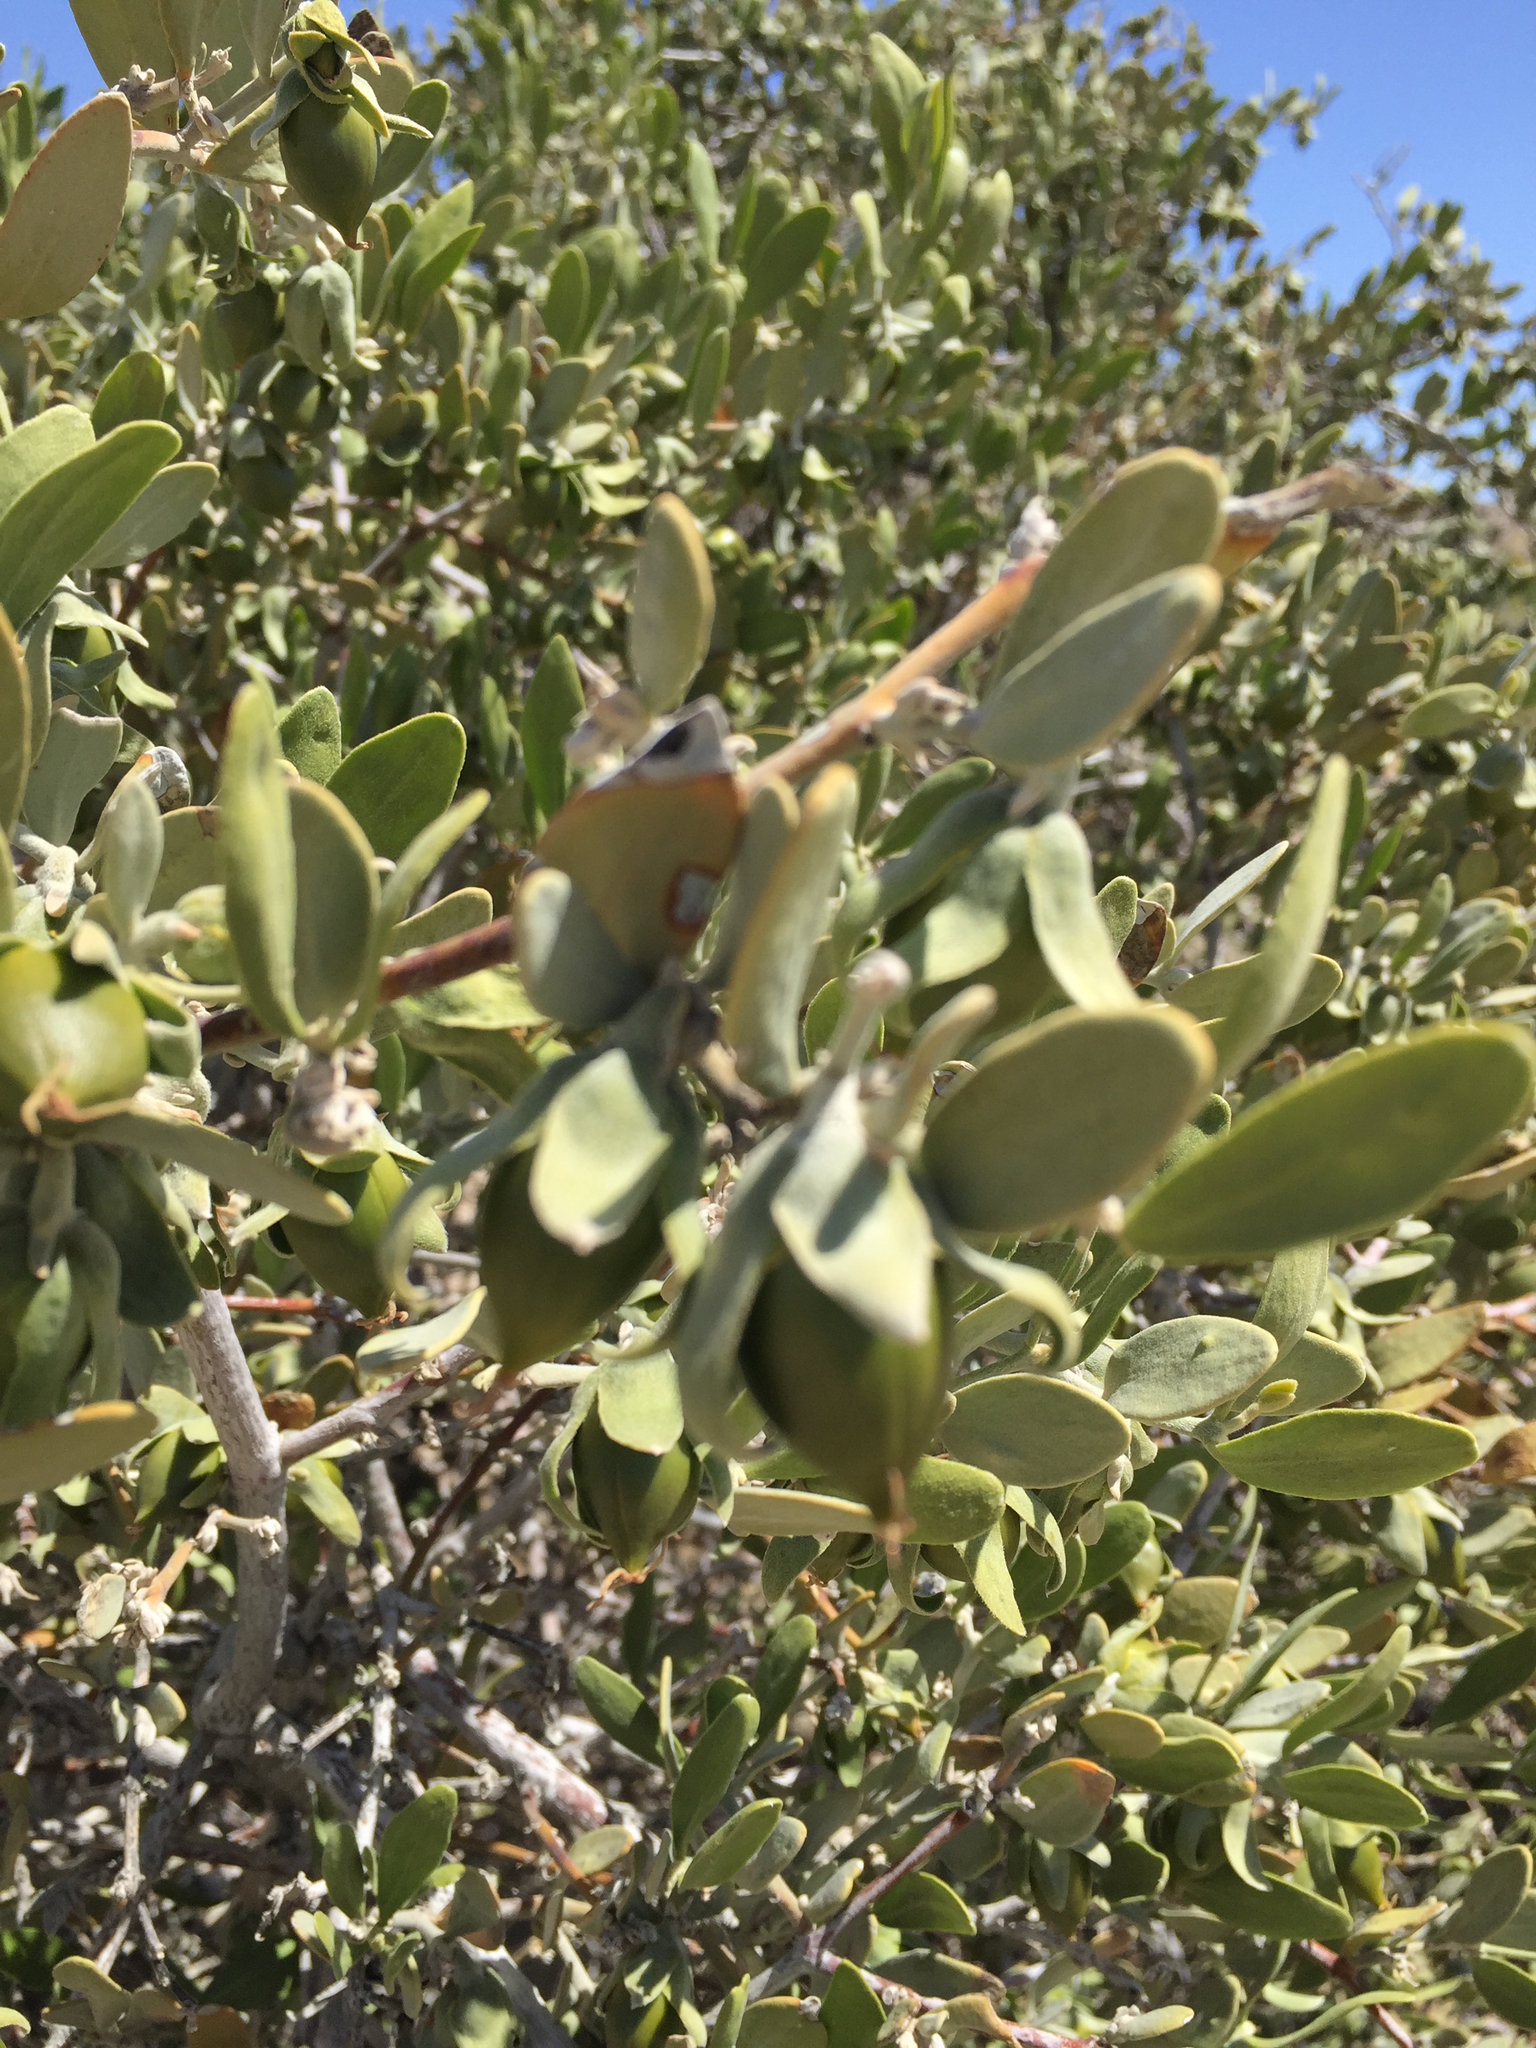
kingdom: Plantae
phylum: Tracheophyta
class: Magnoliopsida
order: Caryophyllales
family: Simmondsiaceae
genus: Simmondsia
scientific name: Simmondsia chinensis
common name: Jojoba
